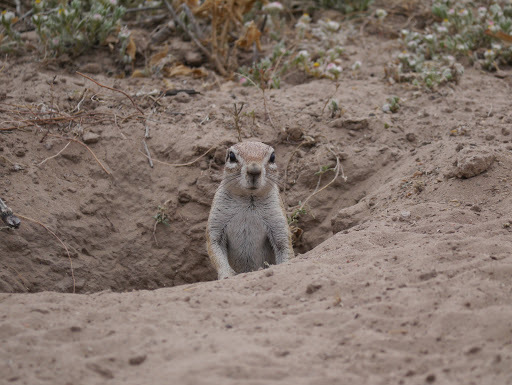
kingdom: Animalia
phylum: Chordata
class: Mammalia
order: Rodentia
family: Sciuridae
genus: Xerus
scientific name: Xerus inauris
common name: South african ground squirrel
